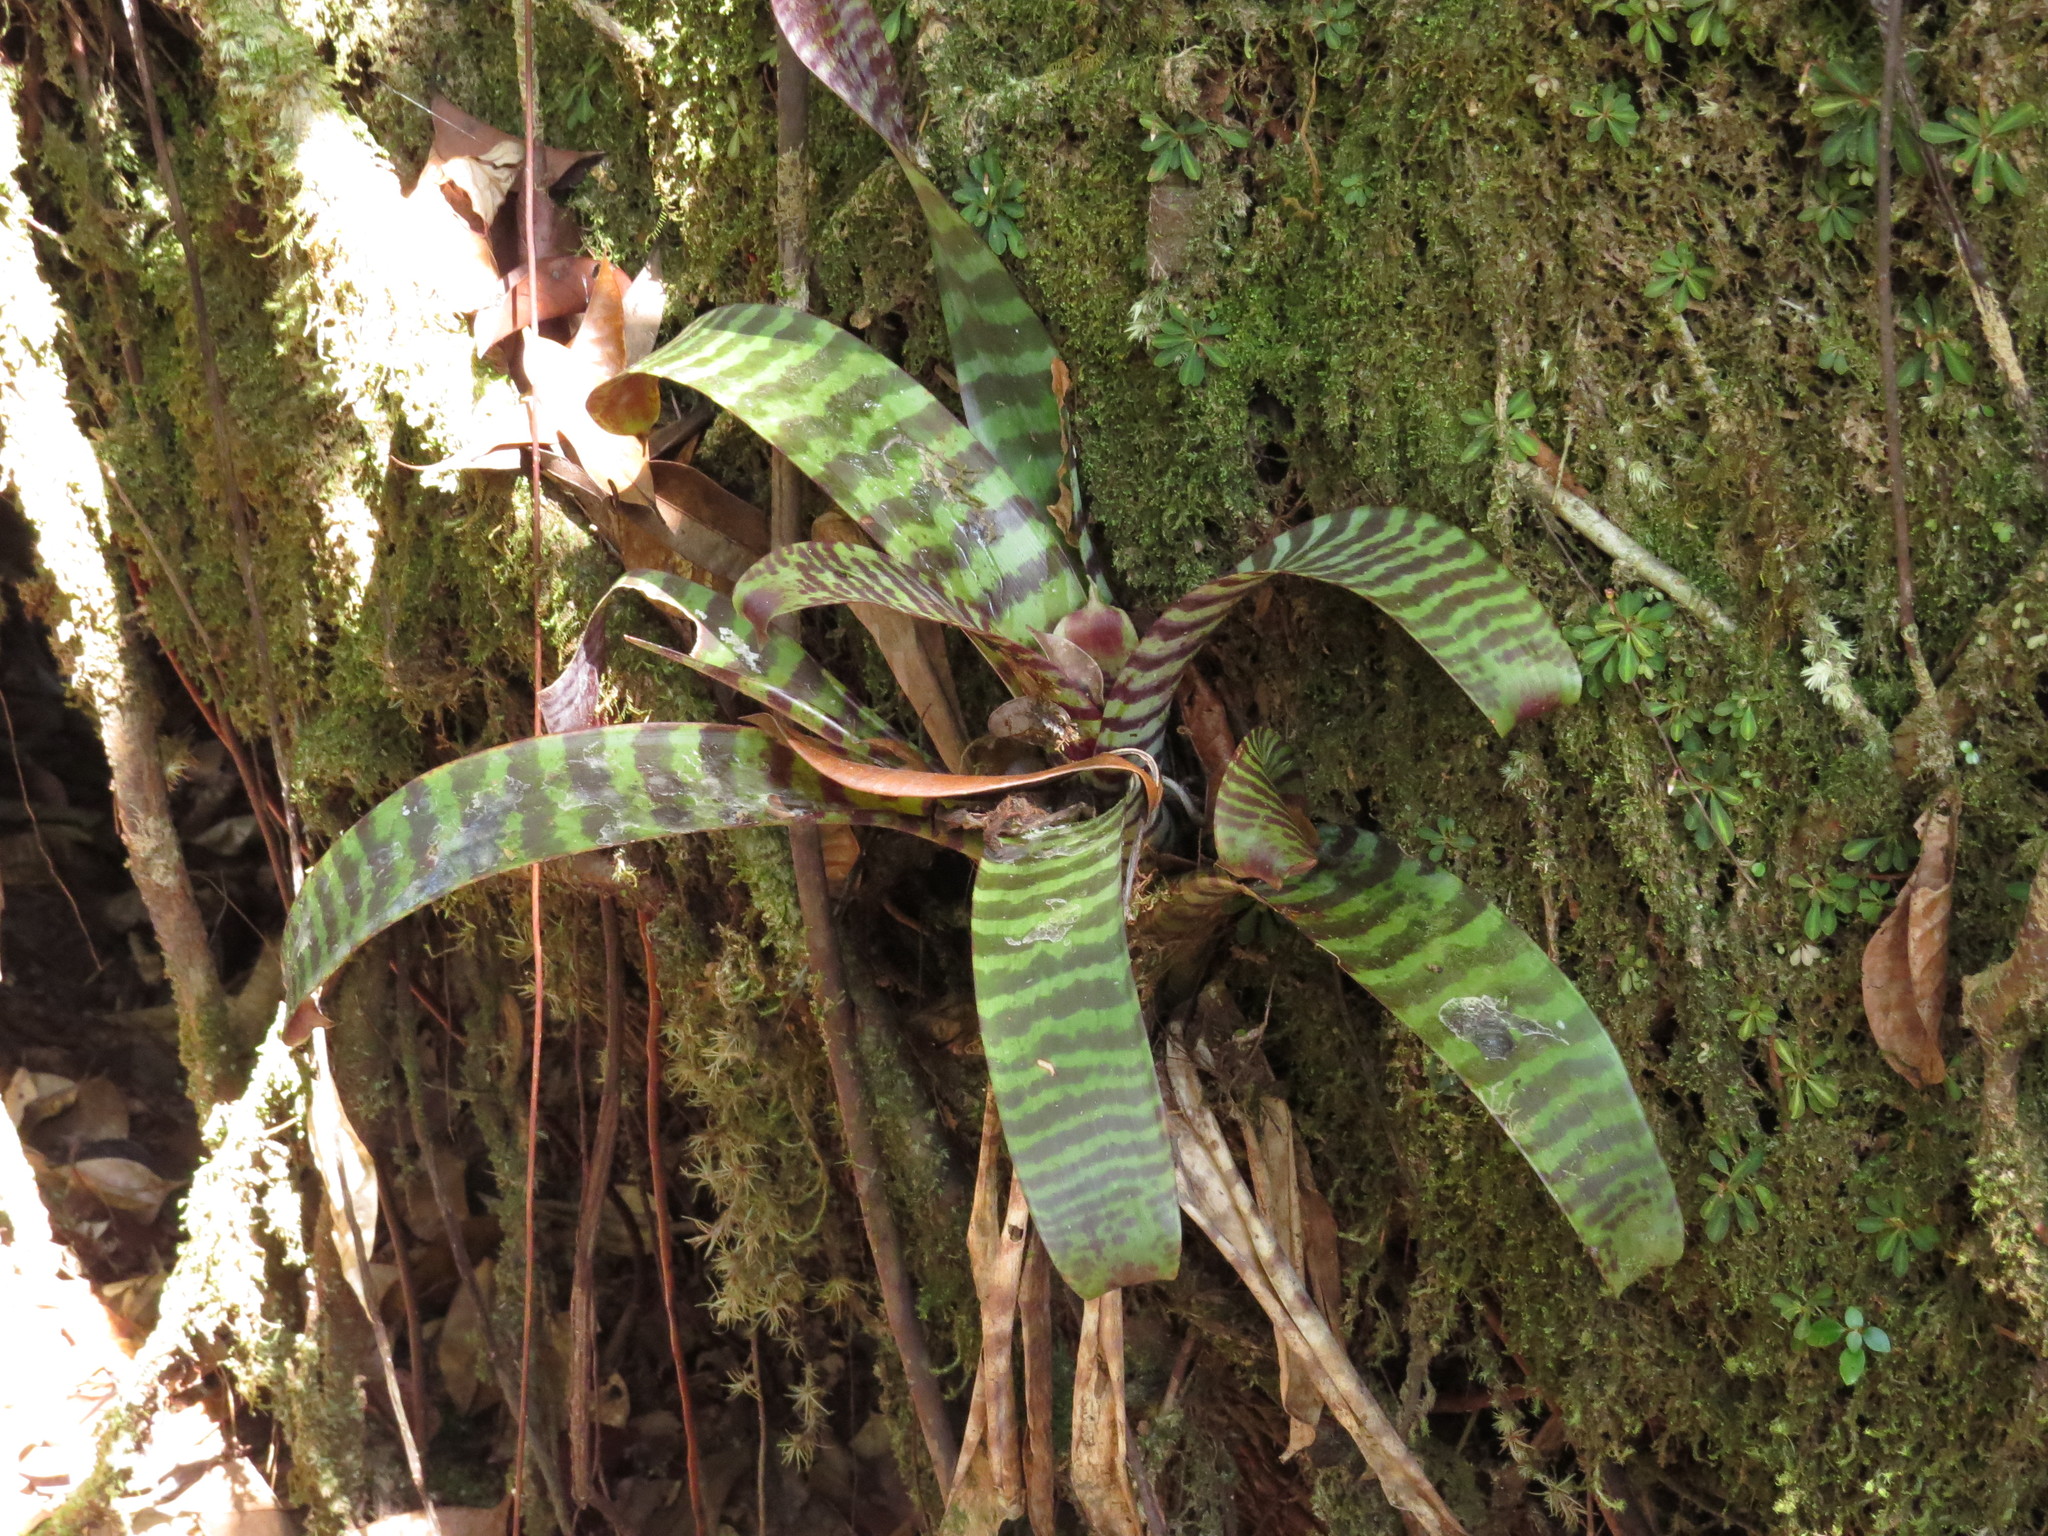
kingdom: Plantae
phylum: Tracheophyta
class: Liliopsida
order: Poales
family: Bromeliaceae
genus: Lutheria
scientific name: Lutheria splendens
